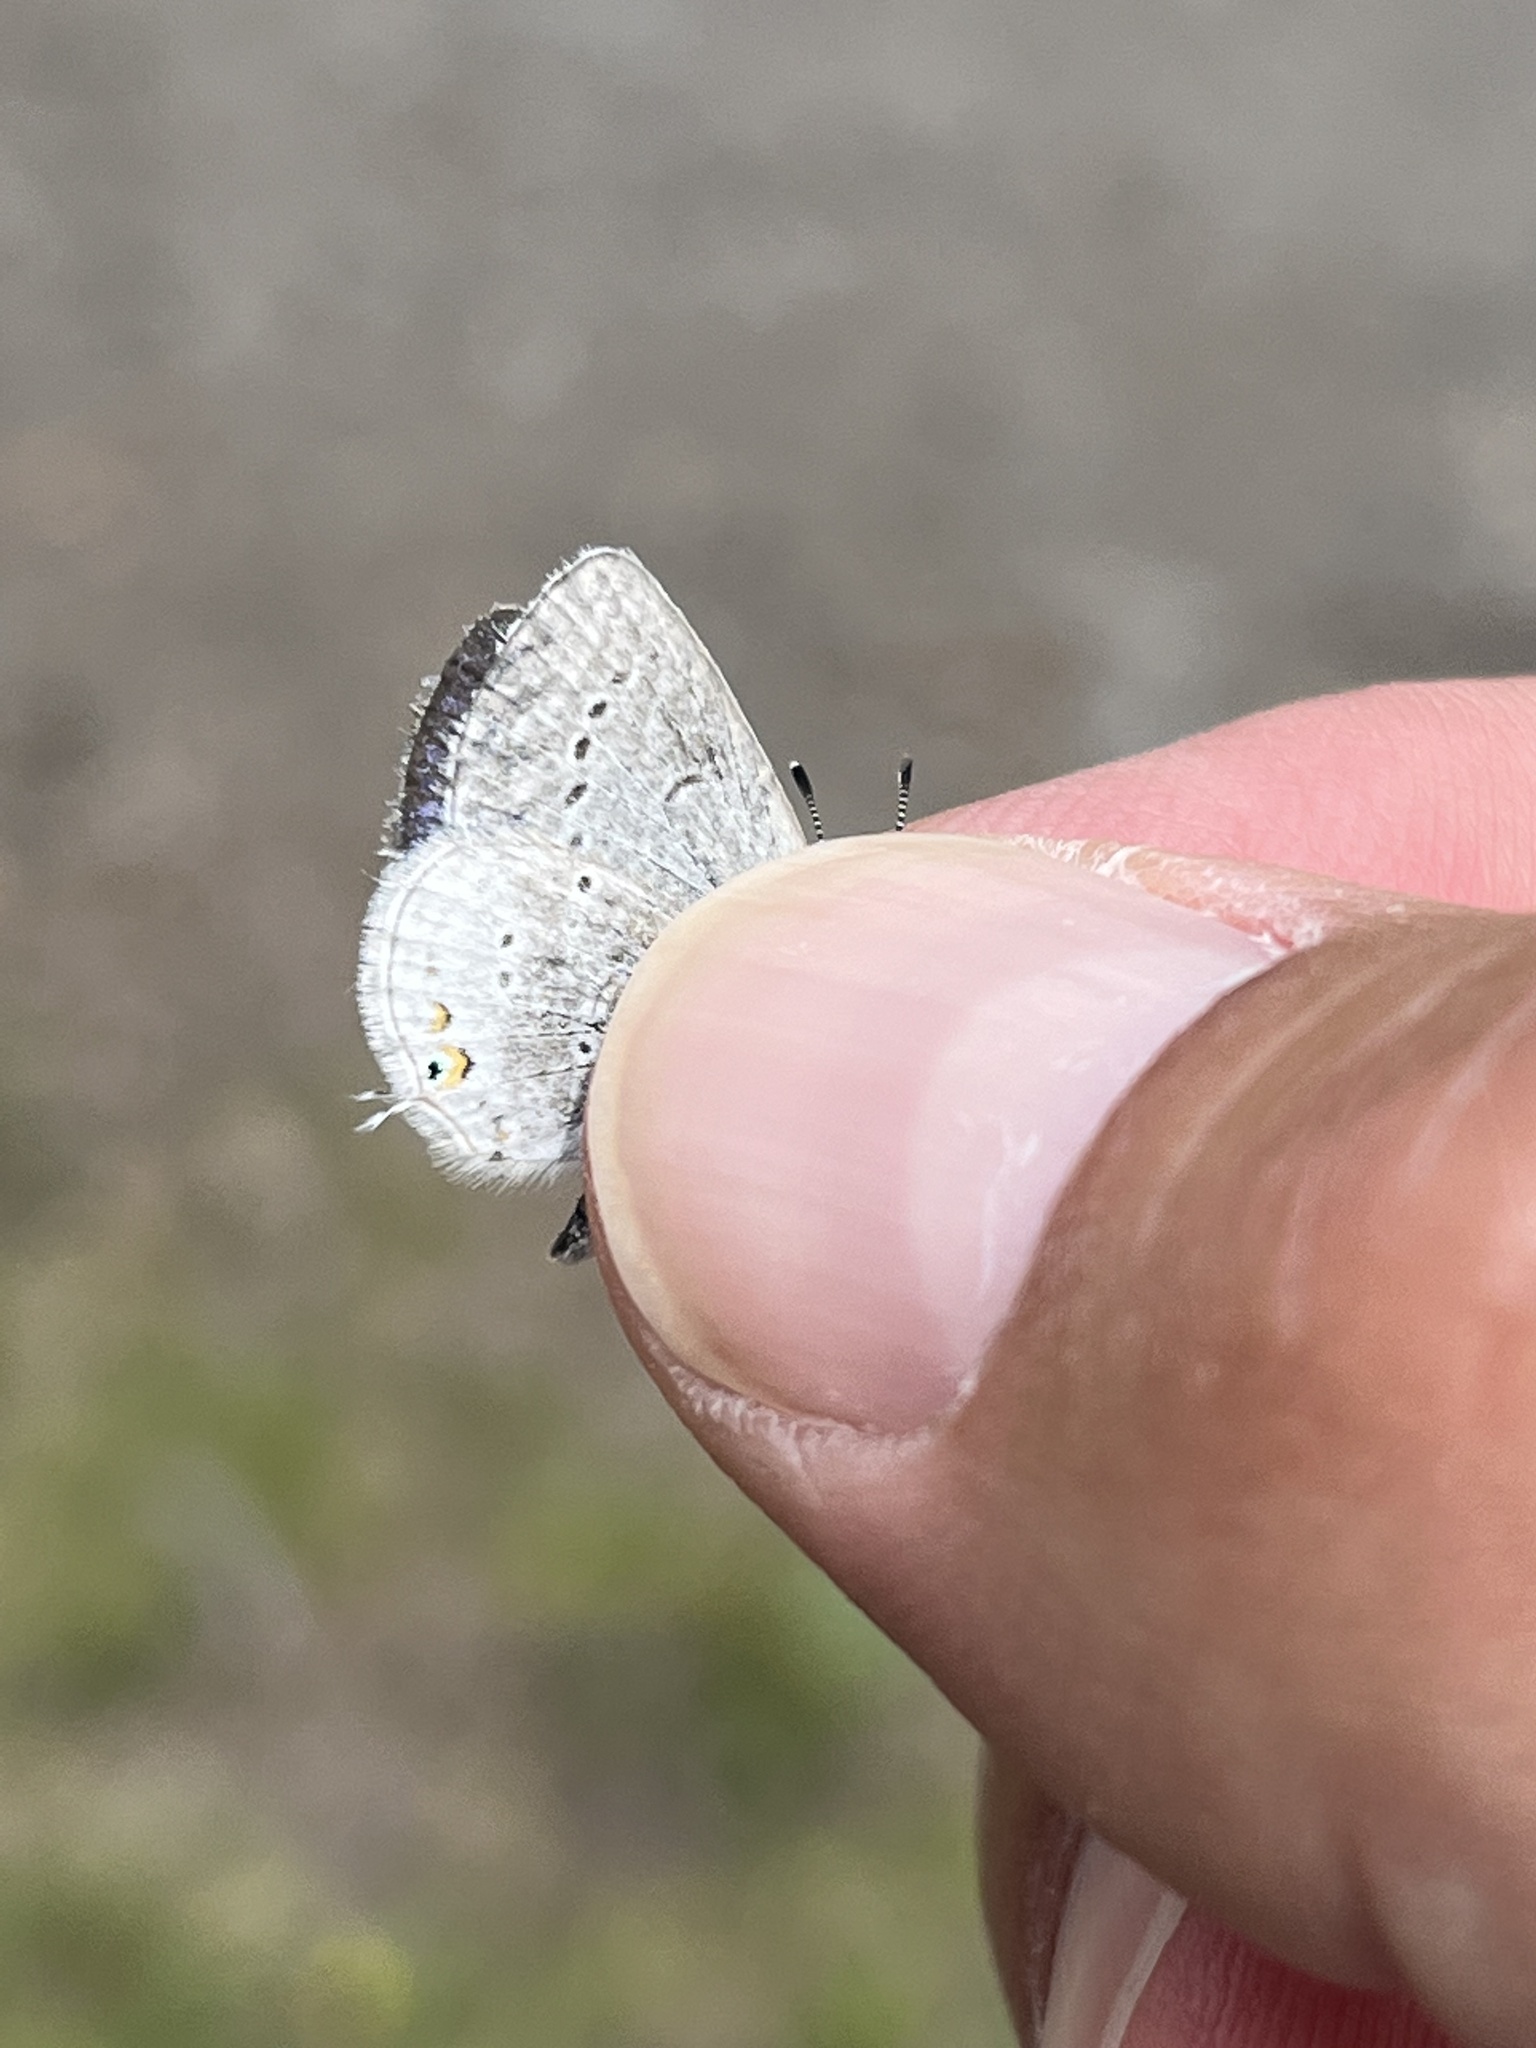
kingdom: Animalia
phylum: Arthropoda
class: Insecta
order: Lepidoptera
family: Lycaenidae
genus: Elkalyce
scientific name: Elkalyce amyntula
